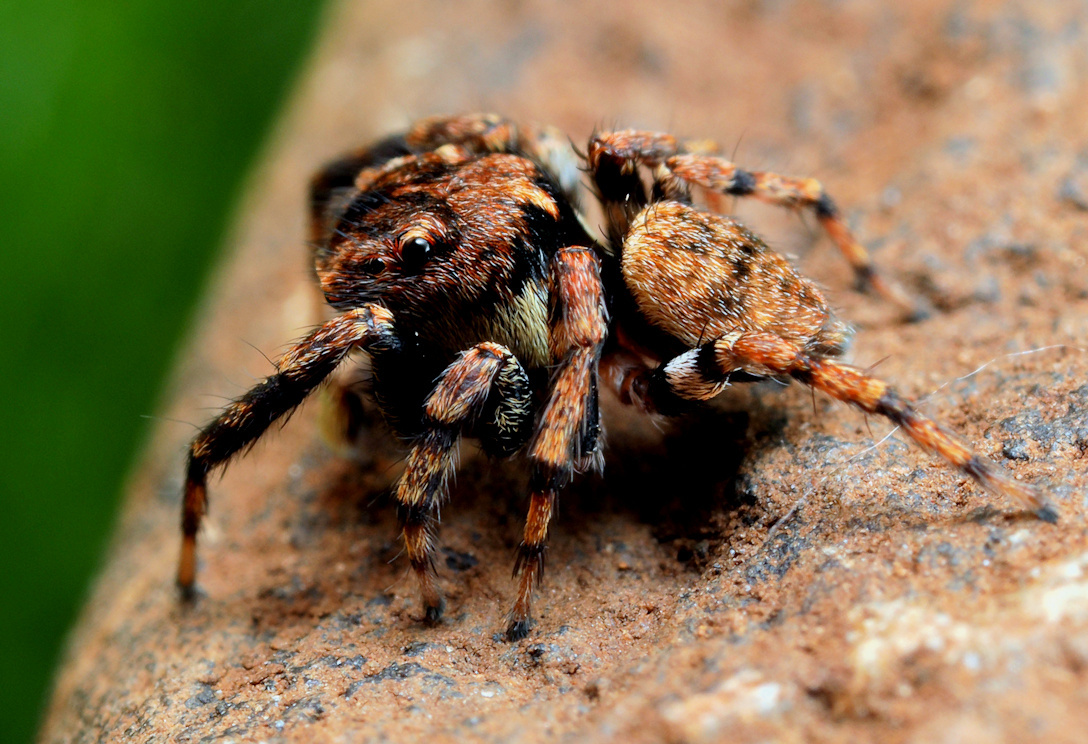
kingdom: Animalia
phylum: Arthropoda
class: Arachnida
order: Araneae
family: Salticidae
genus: Habrocestum
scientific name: Habrocestum africanum
